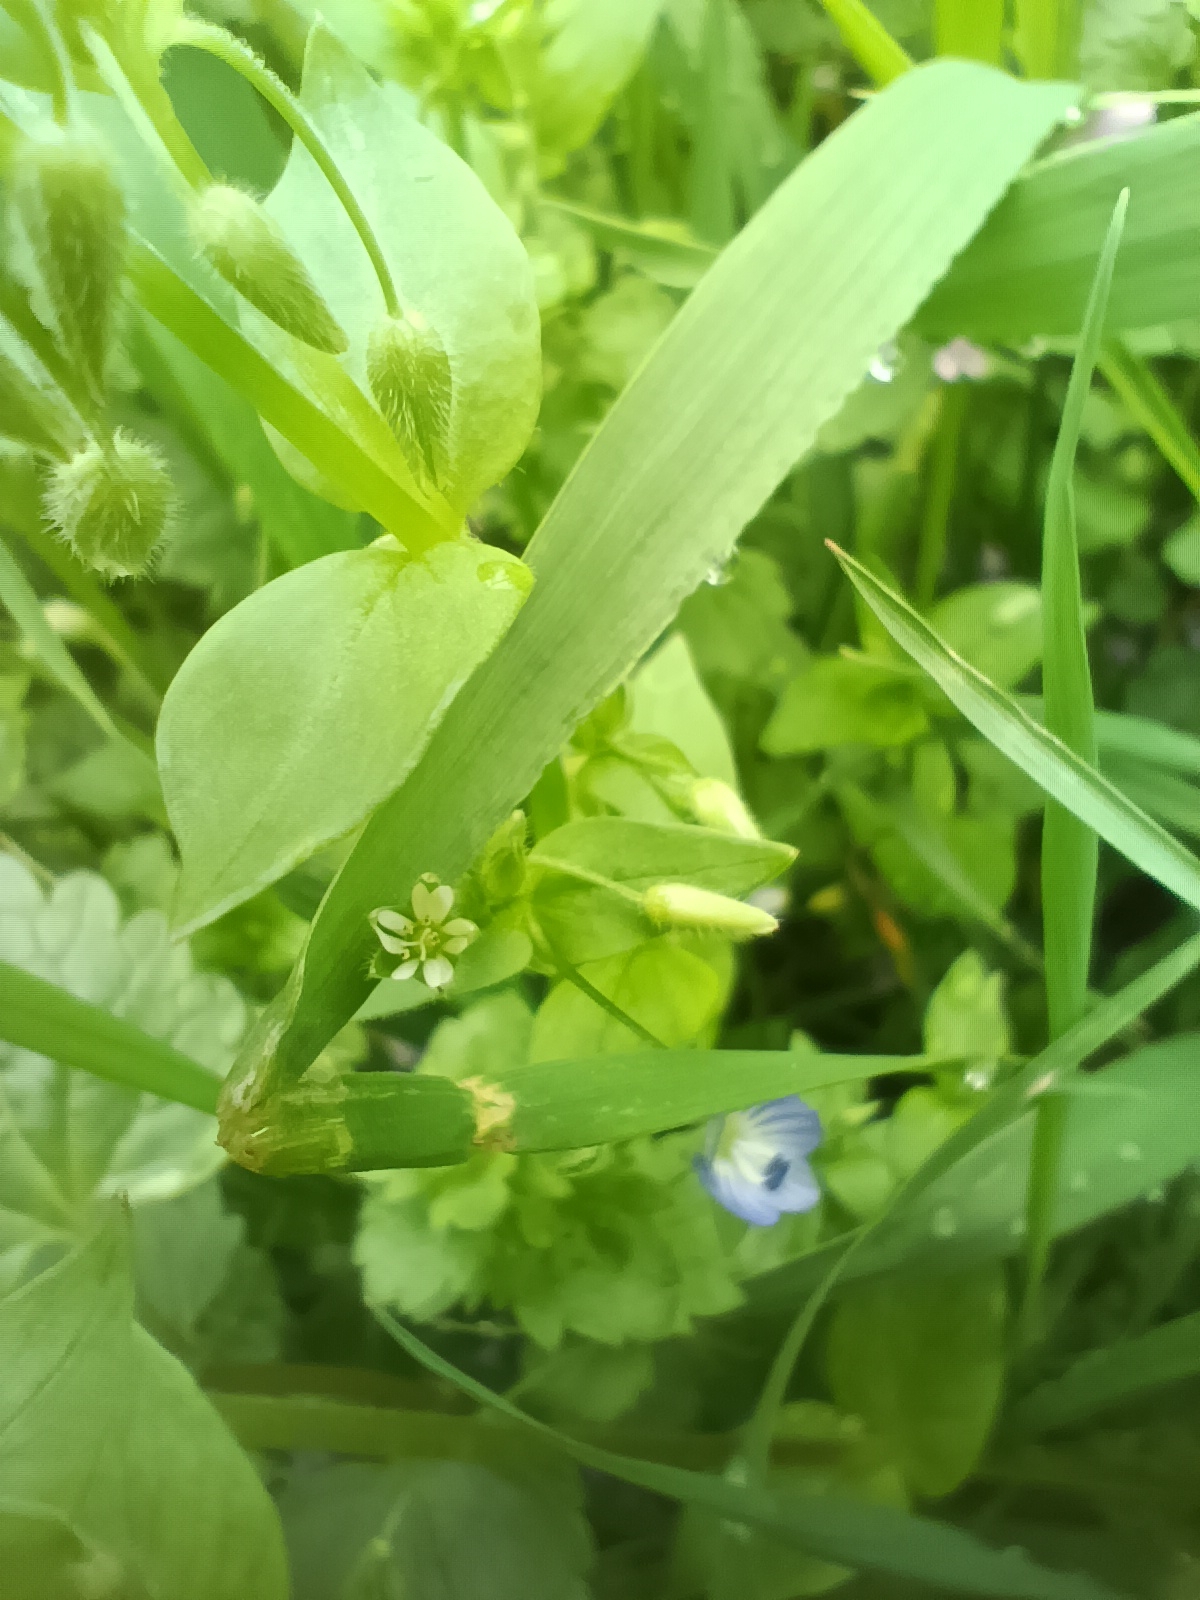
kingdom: Plantae
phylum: Tracheophyta
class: Magnoliopsida
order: Caryophyllales
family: Caryophyllaceae
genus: Stellaria
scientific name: Stellaria media
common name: Common chickweed
